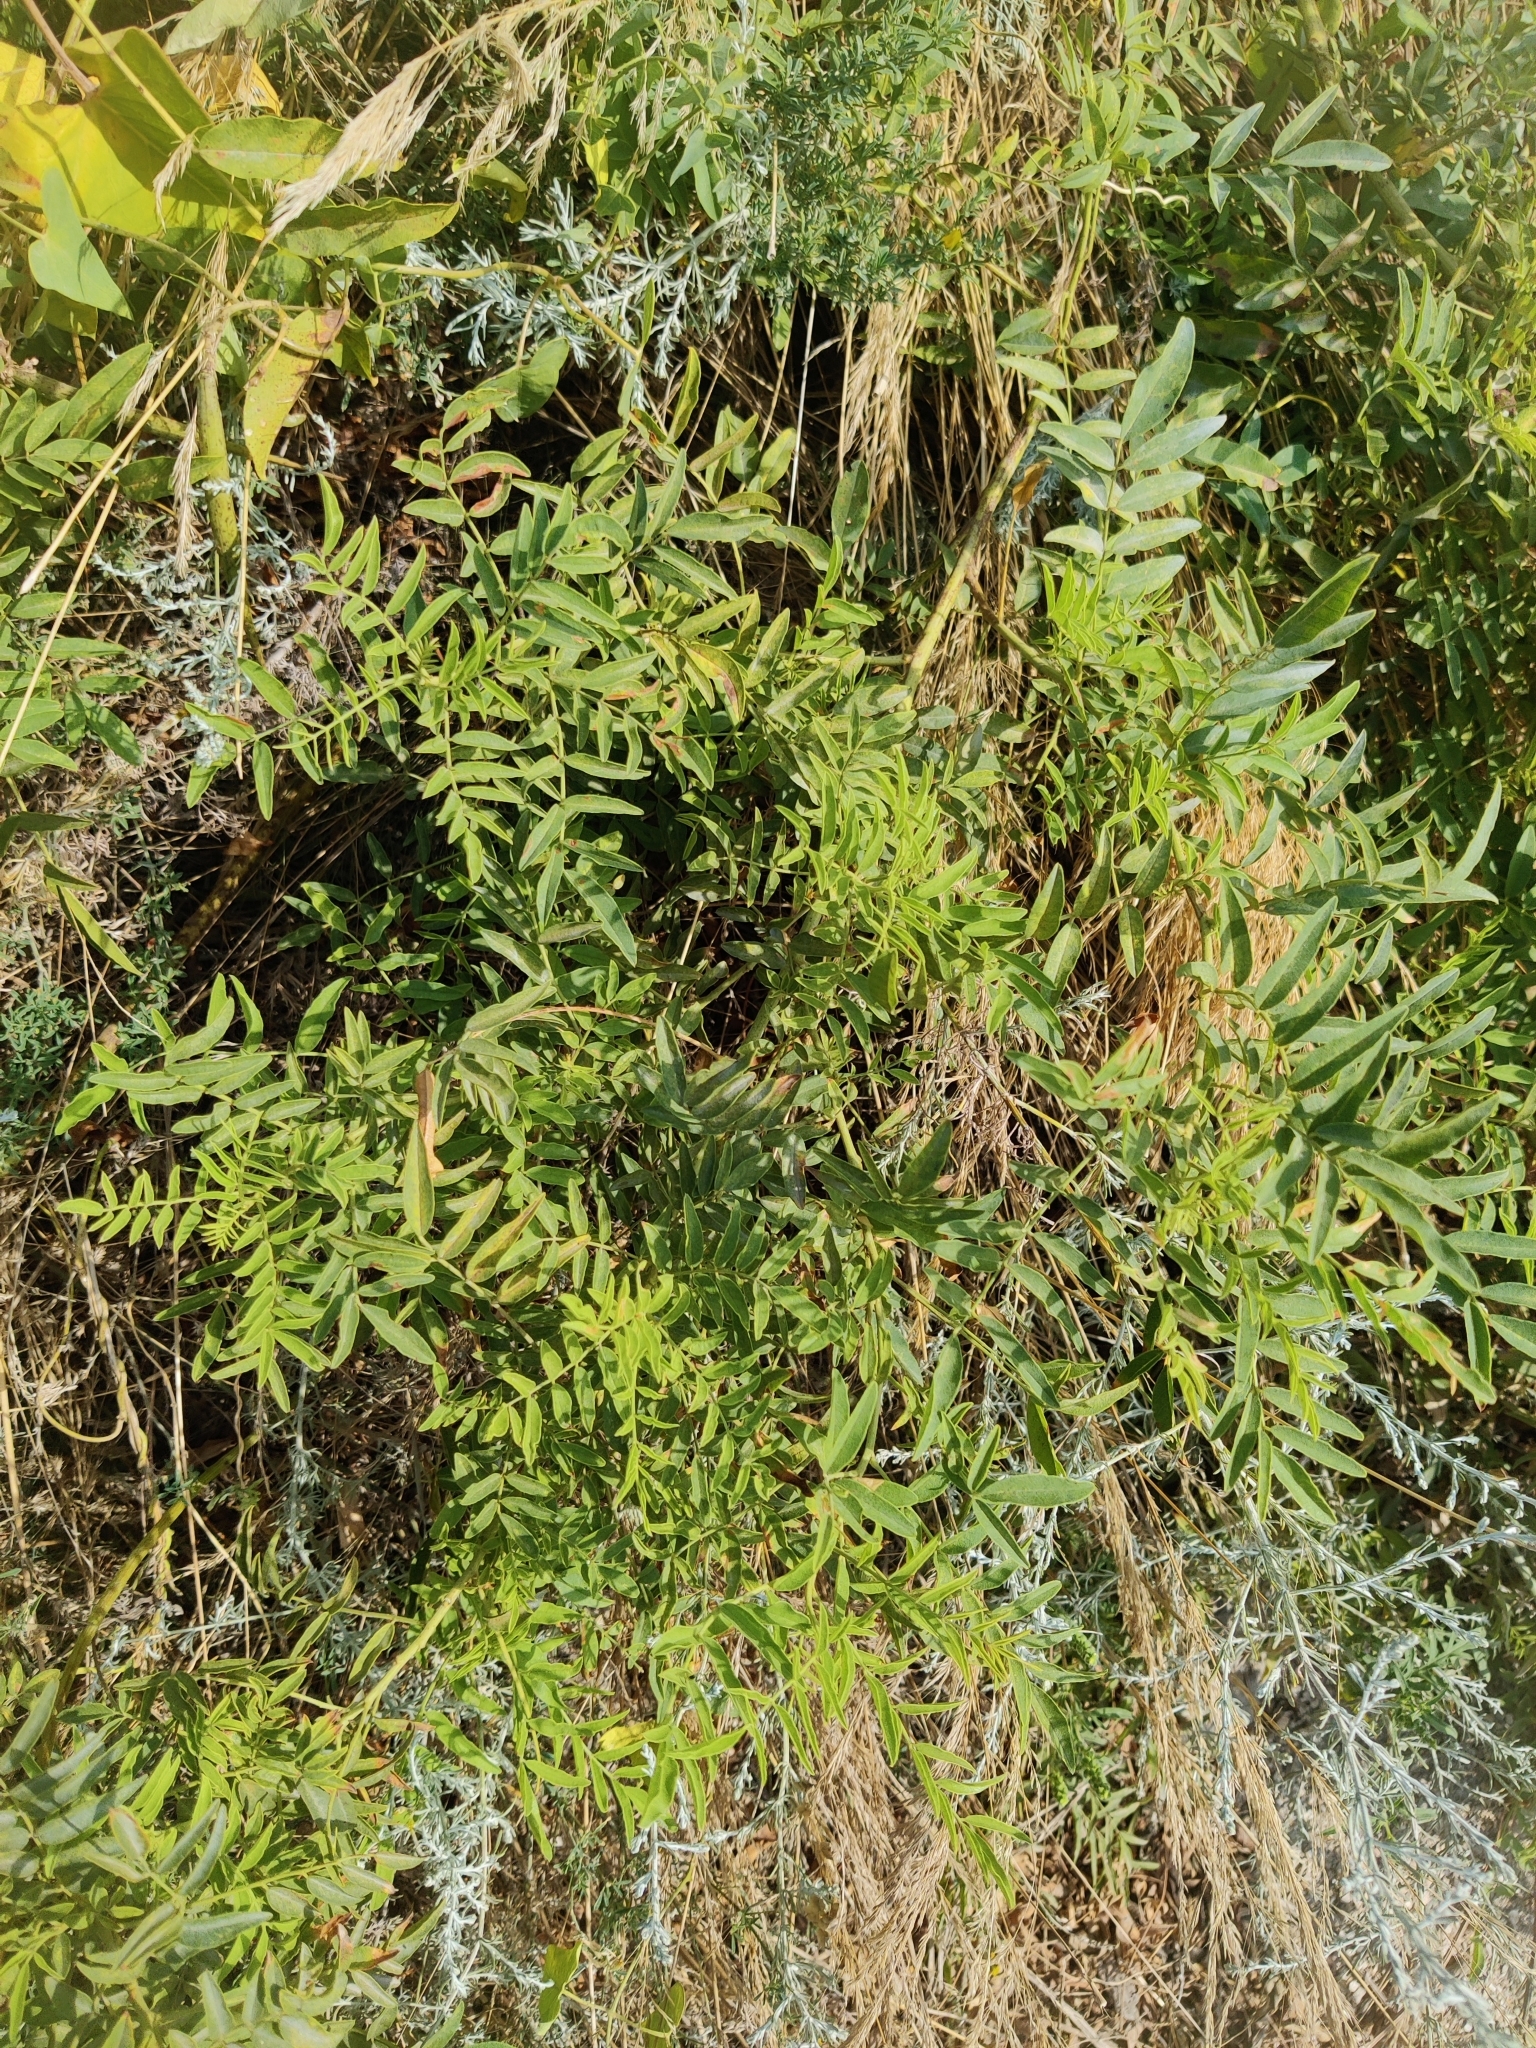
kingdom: Plantae
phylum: Tracheophyta
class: Magnoliopsida
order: Fabales
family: Fabaceae
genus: Glycyrrhiza
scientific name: Glycyrrhiza glabra
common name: Liquorice
